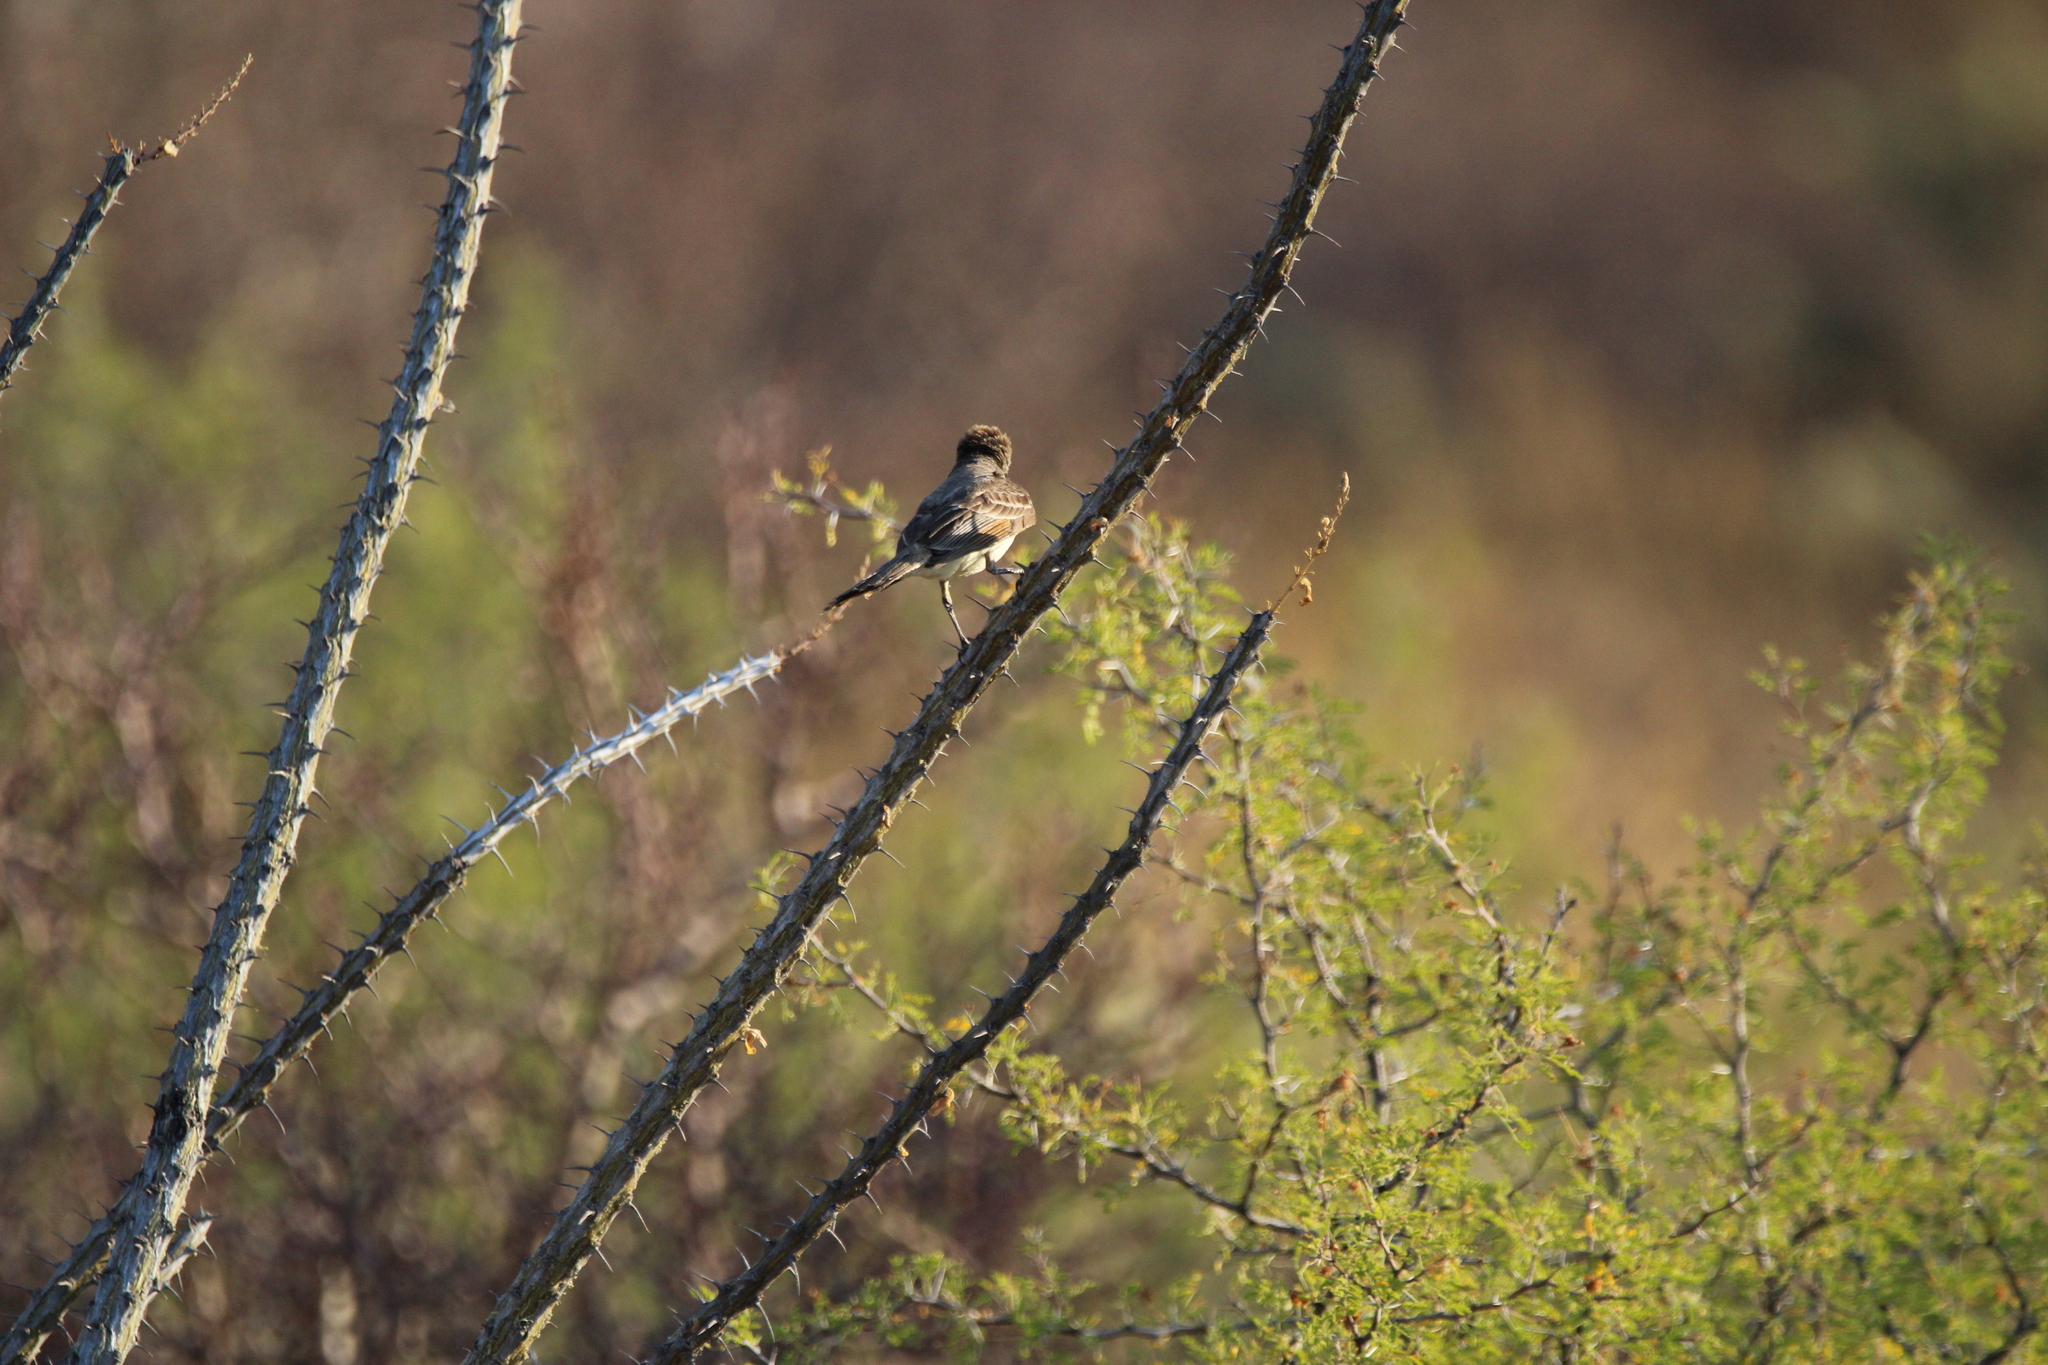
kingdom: Animalia
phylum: Chordata
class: Aves
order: Passeriformes
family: Tyrannidae
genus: Myiarchus
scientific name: Myiarchus
